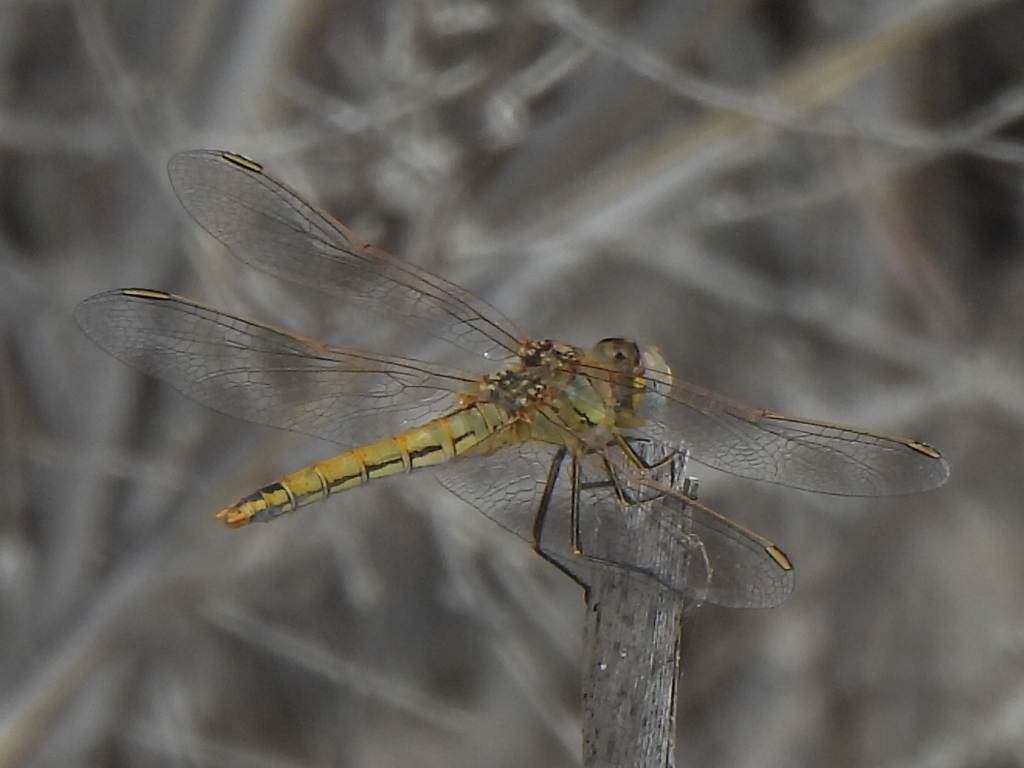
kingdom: Animalia
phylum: Arthropoda
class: Insecta
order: Odonata
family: Libellulidae
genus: Sympetrum
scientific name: Sympetrum fonscolombii
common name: Red-veined darter
